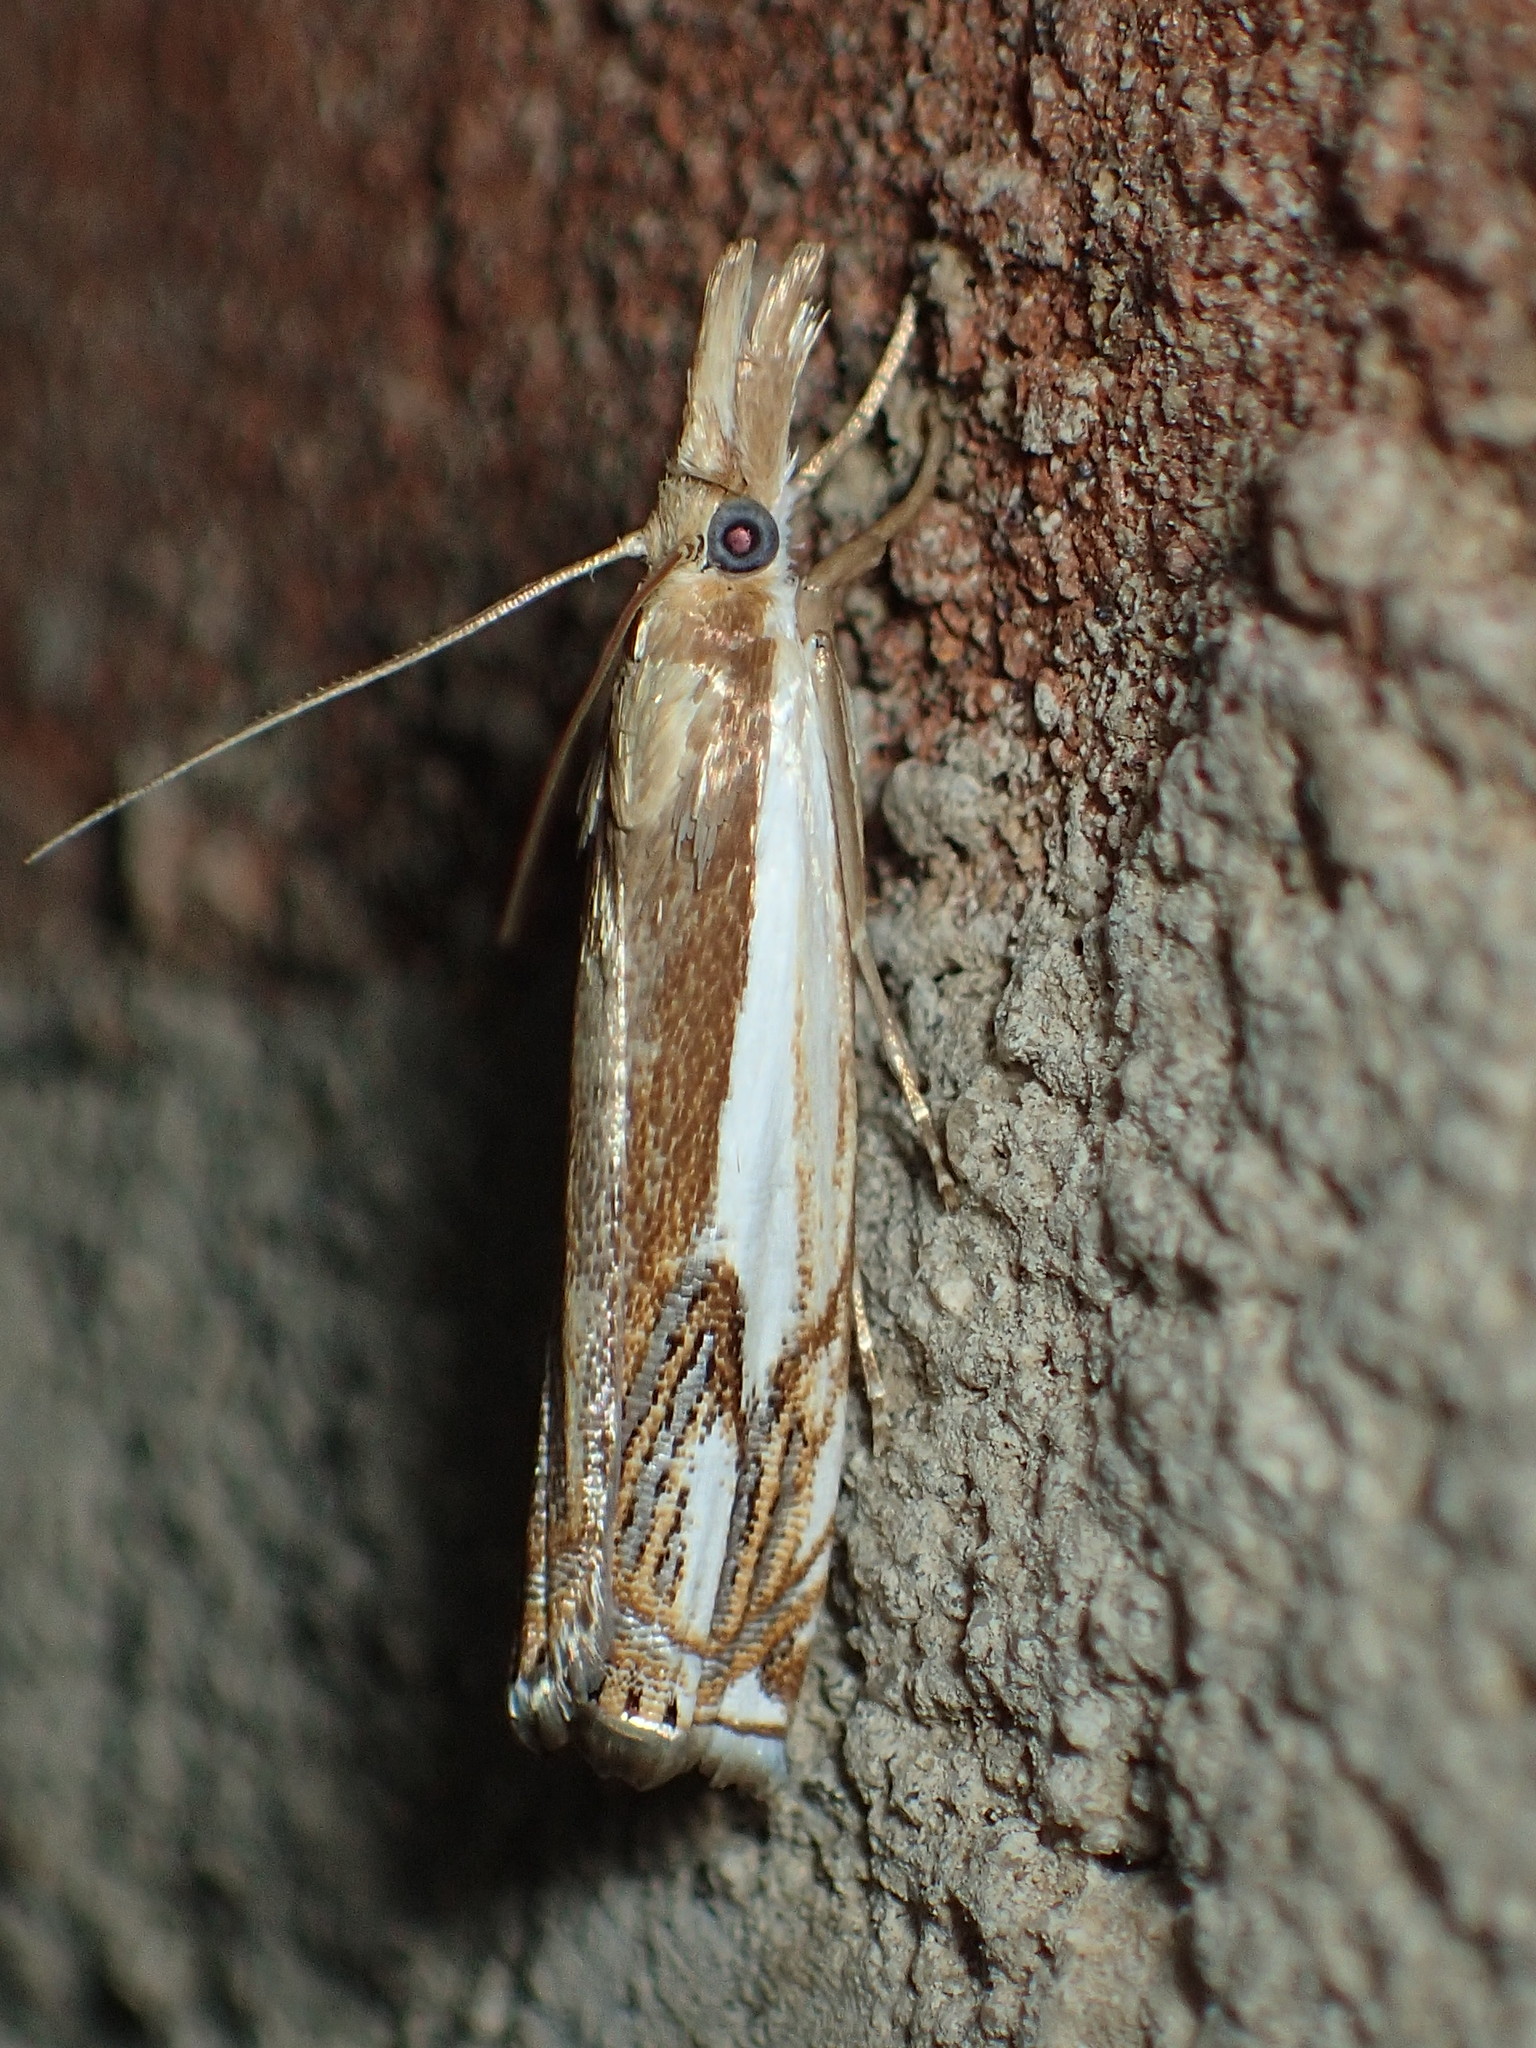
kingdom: Animalia
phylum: Arthropoda
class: Insecta
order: Lepidoptera
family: Crambidae
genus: Crambus
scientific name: Crambus agitatellus
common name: Double-banded grass-veneer
